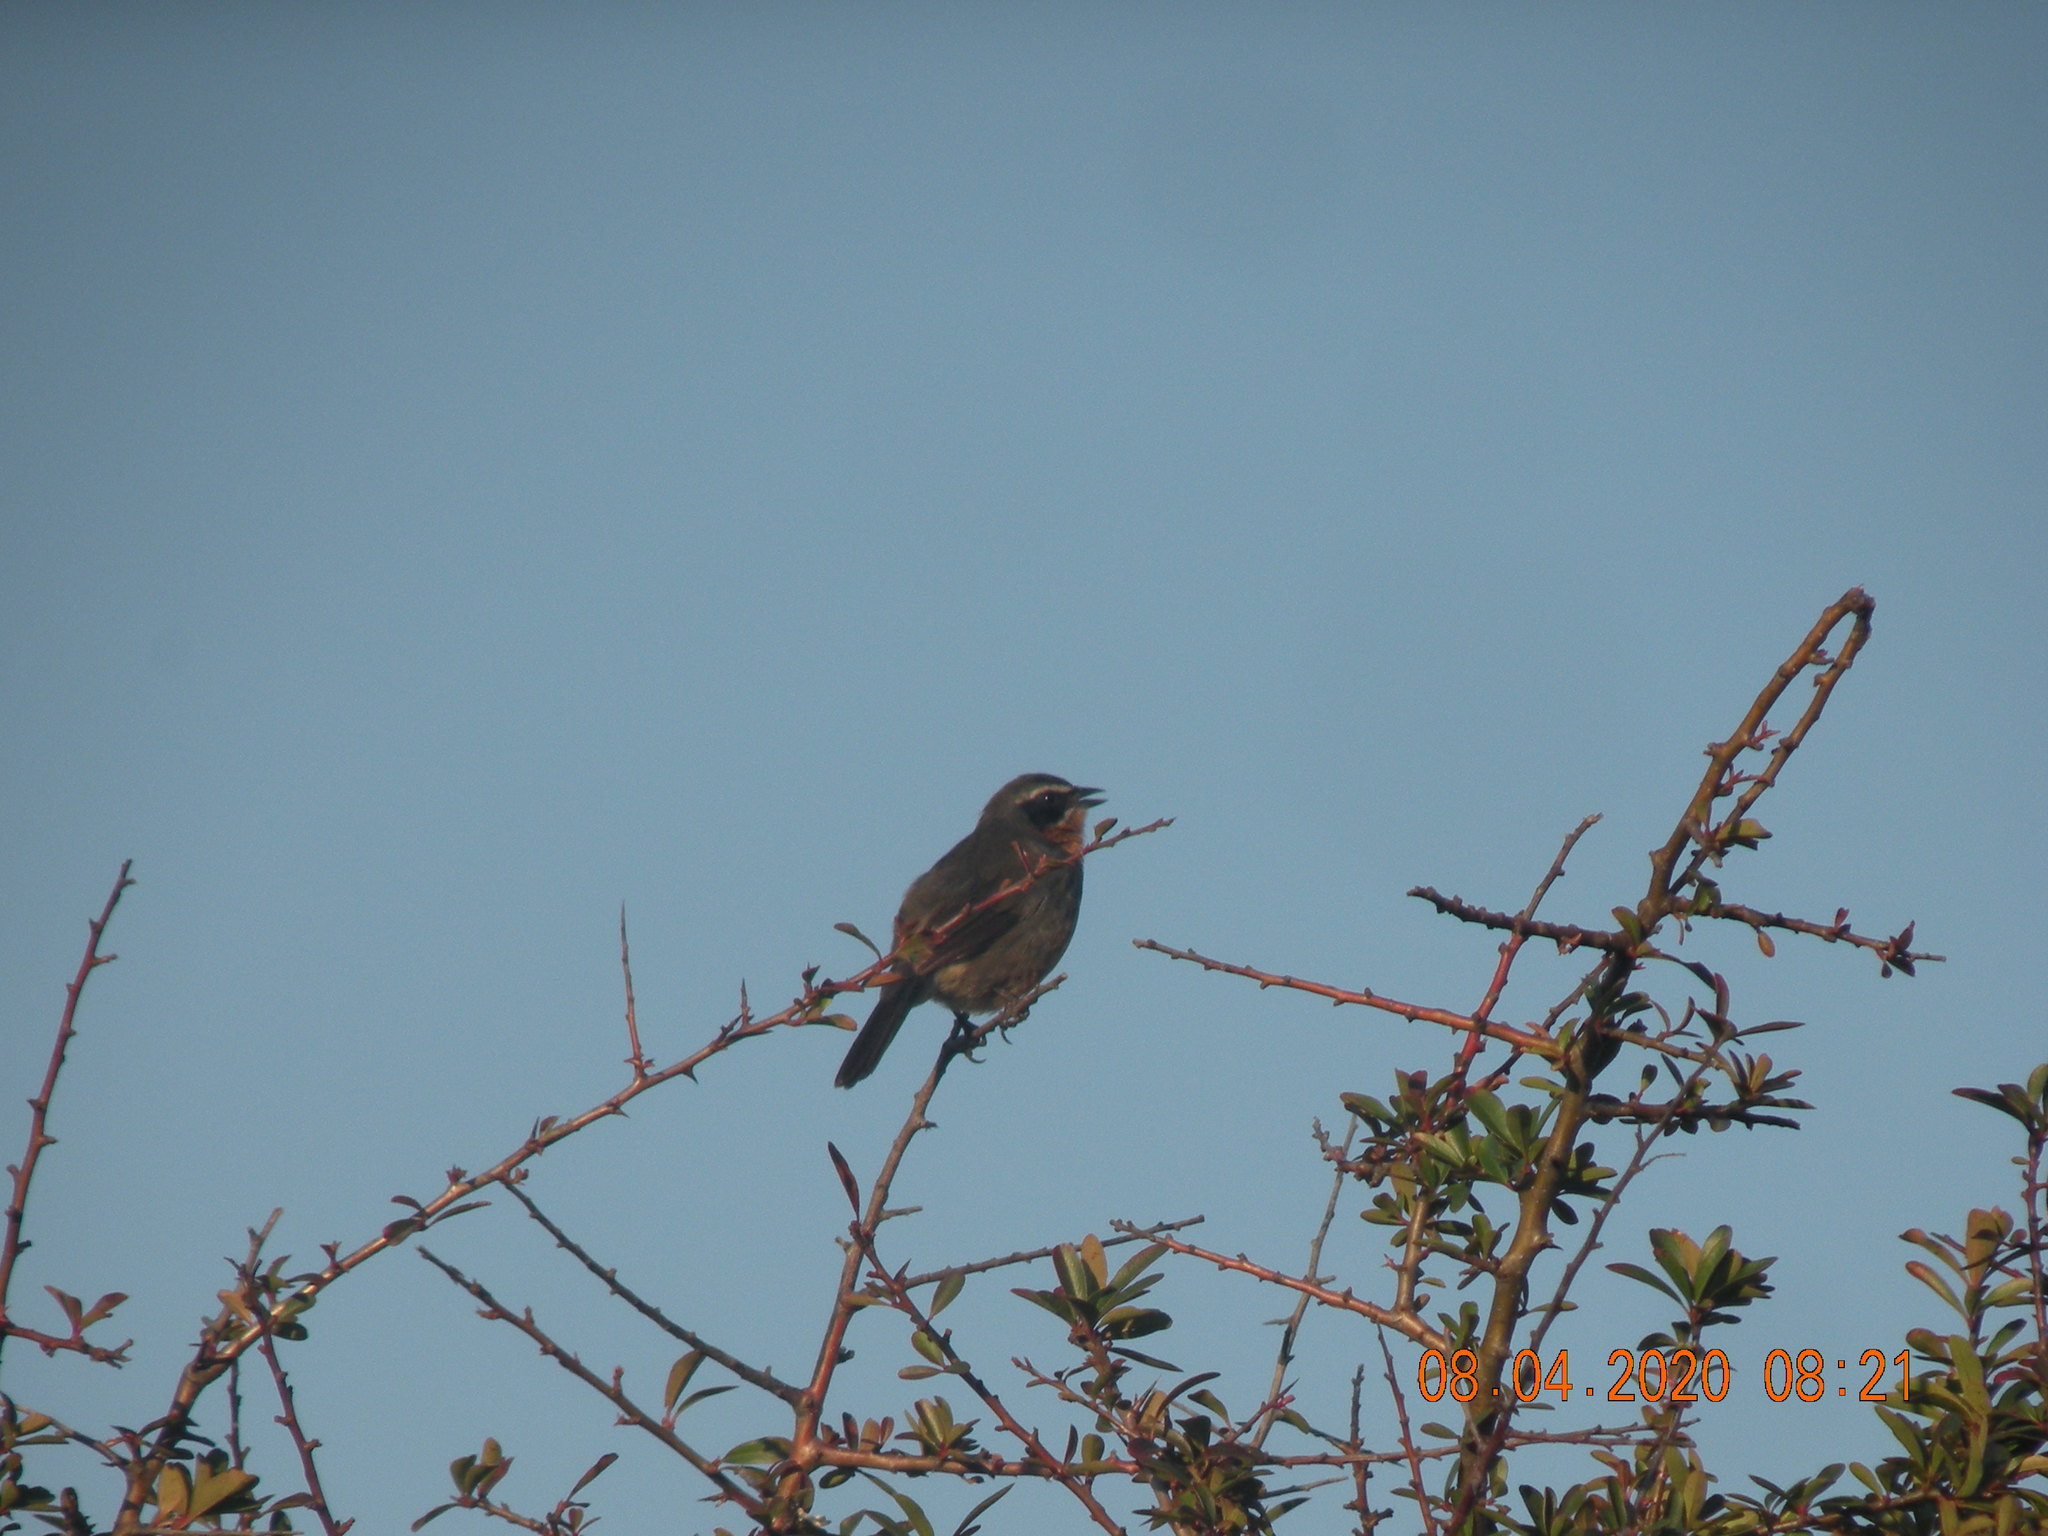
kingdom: Animalia
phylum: Chordata
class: Aves
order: Passeriformes
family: Thraupidae
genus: Poospiza
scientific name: Poospiza nigrorufa
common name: Black-and-rufous warbling finch
